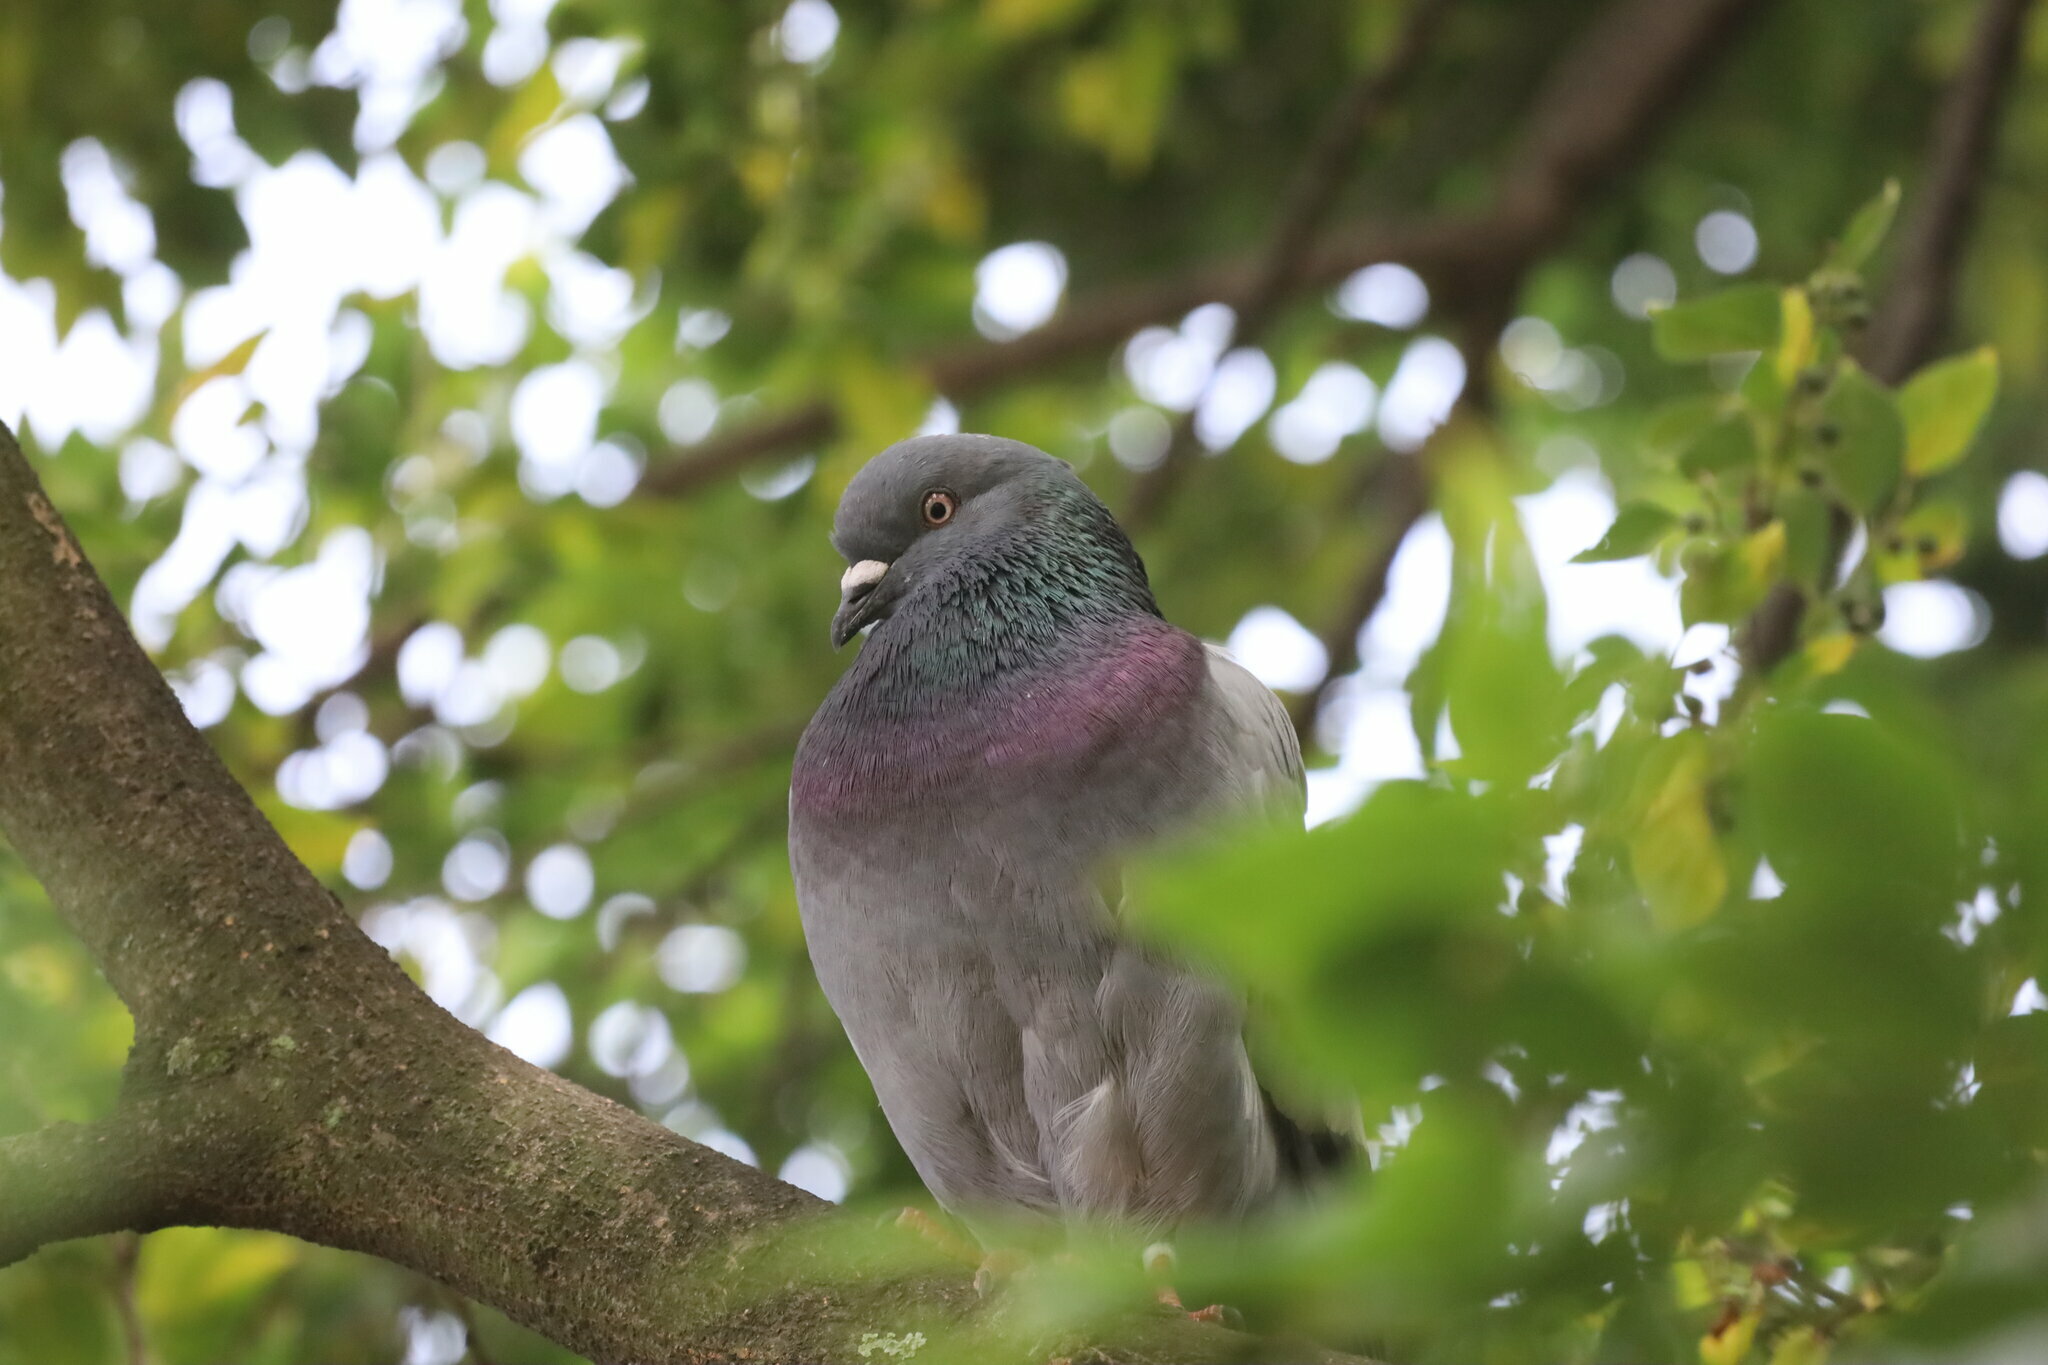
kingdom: Animalia
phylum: Chordata
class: Aves
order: Columbiformes
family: Columbidae
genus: Columba
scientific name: Columba livia
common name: Rock pigeon
